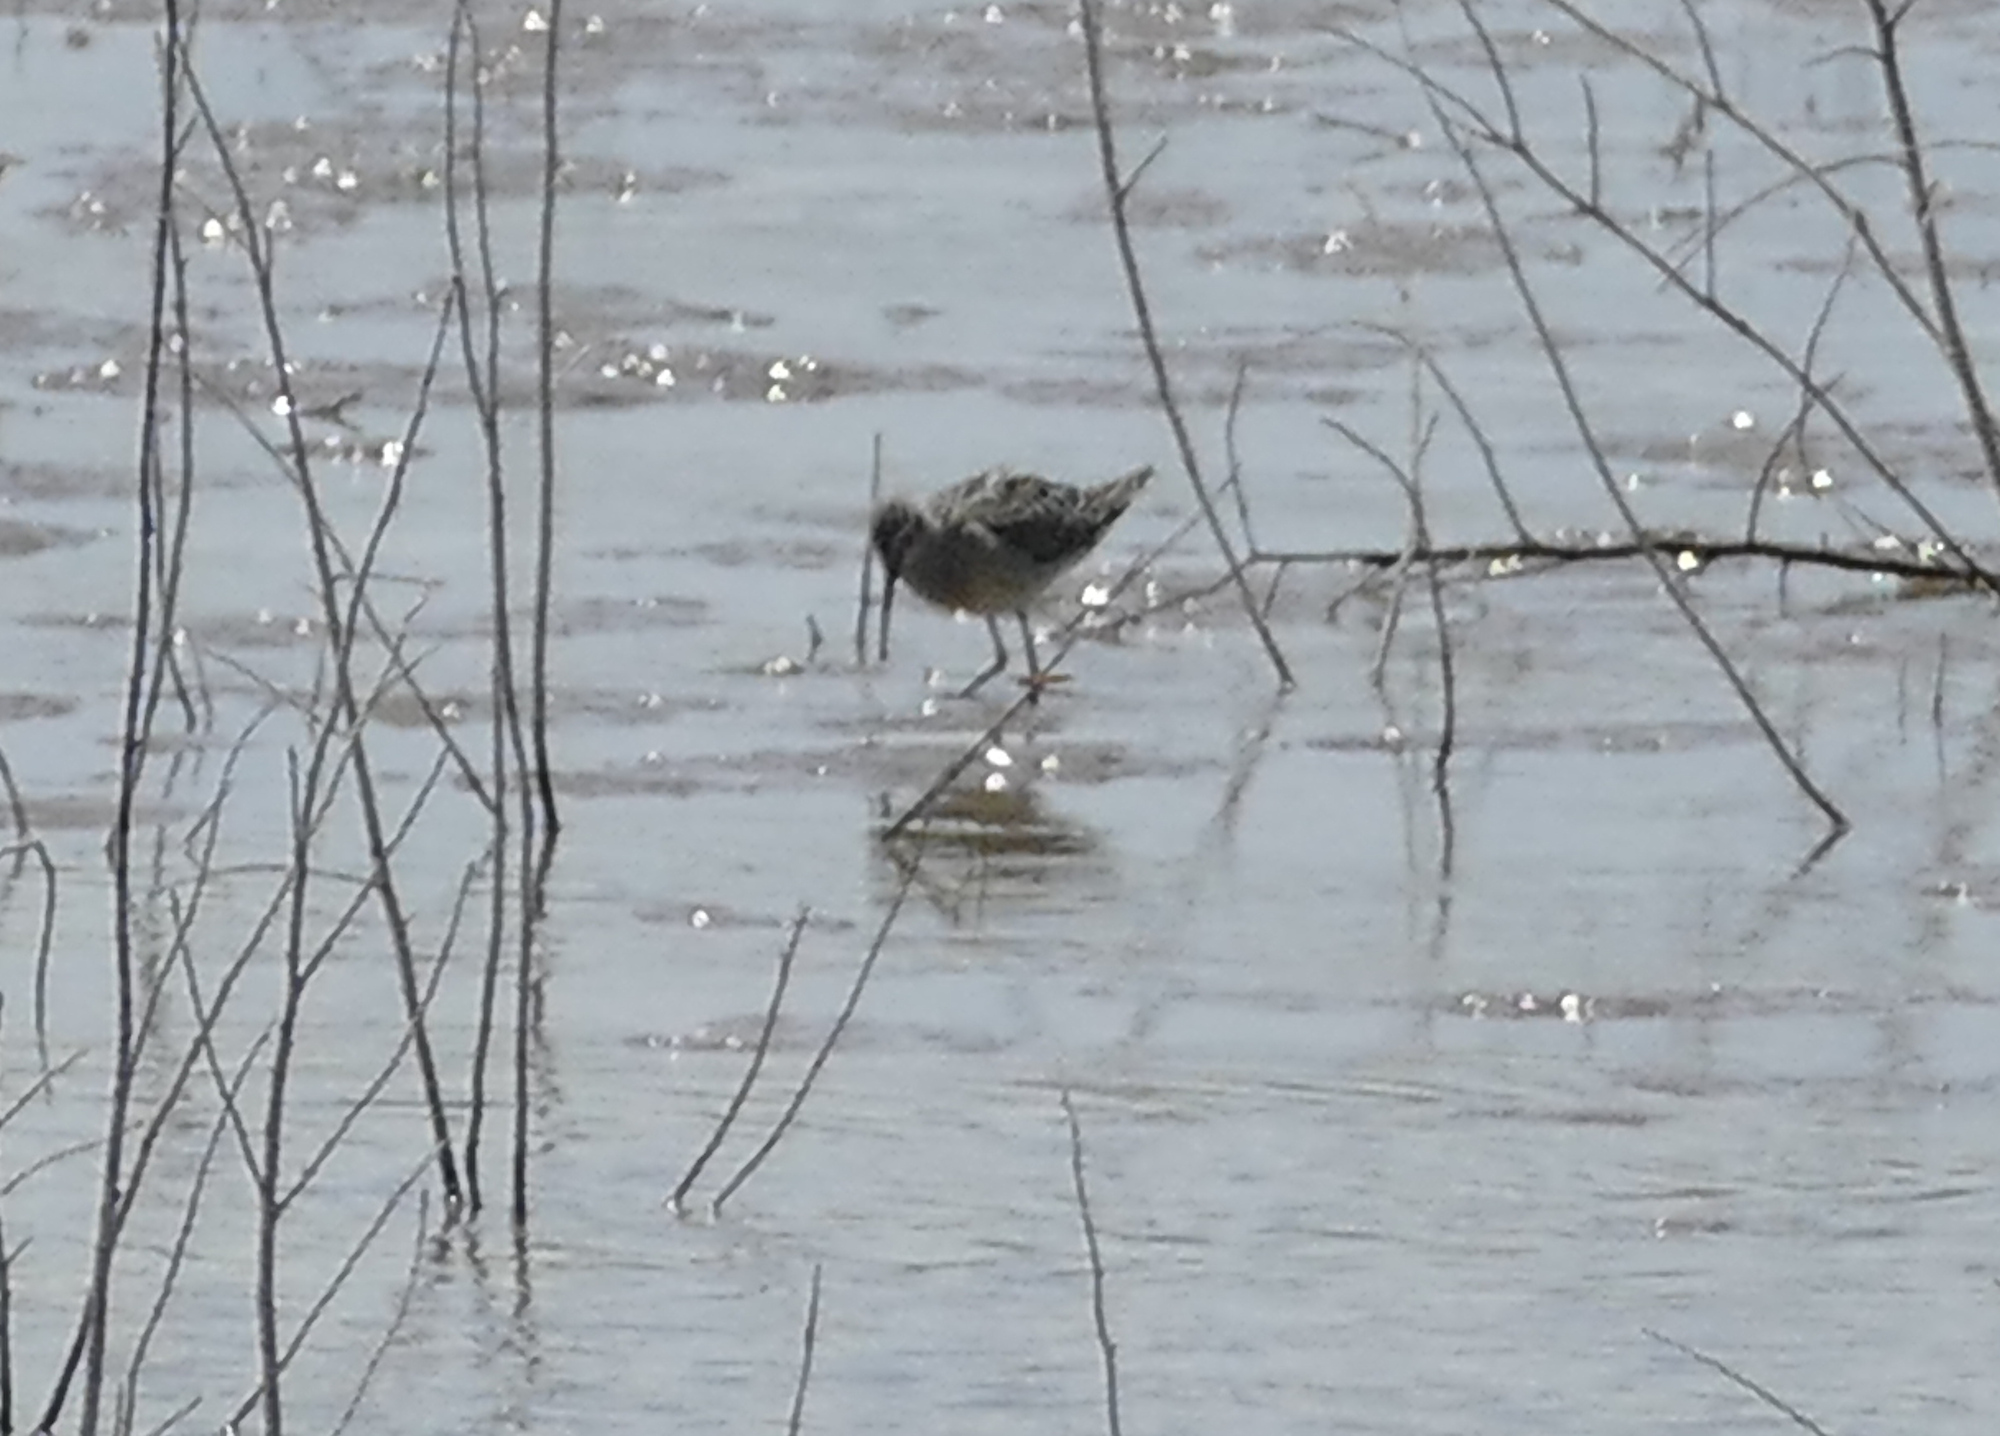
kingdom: Animalia
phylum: Chordata
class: Aves
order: Charadriiformes
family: Scolopacidae
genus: Calidris
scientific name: Calidris himantopus
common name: Stilt sandpiper
